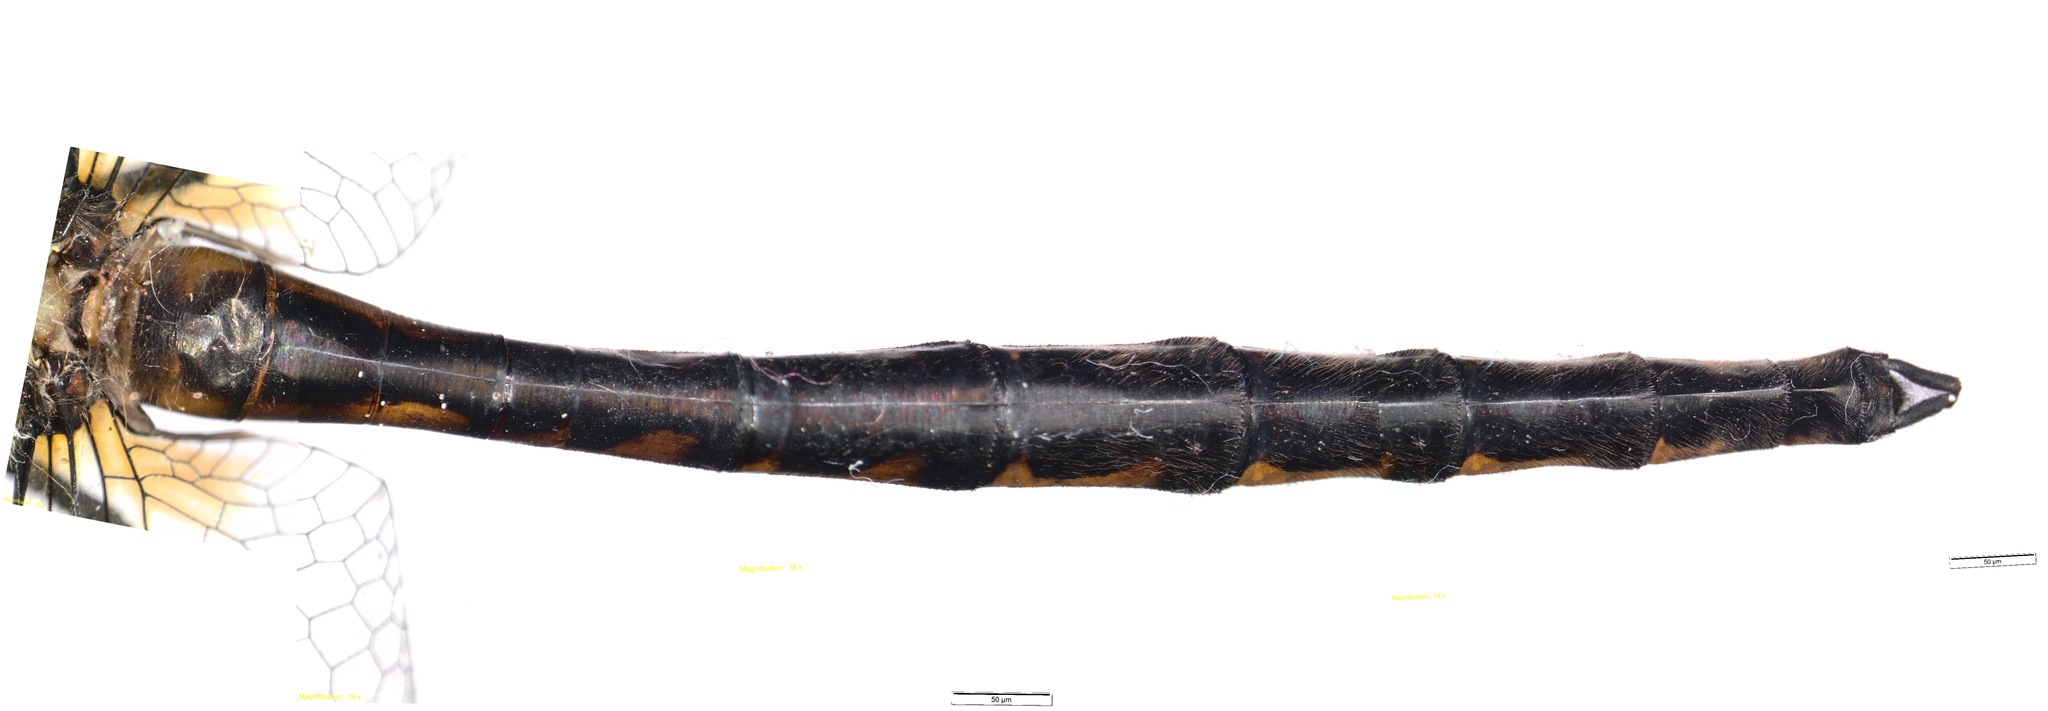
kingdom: Animalia
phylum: Arthropoda
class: Insecta
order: Odonata
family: Corduliidae
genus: Hemicordulia
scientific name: Hemicordulia armstrongi
